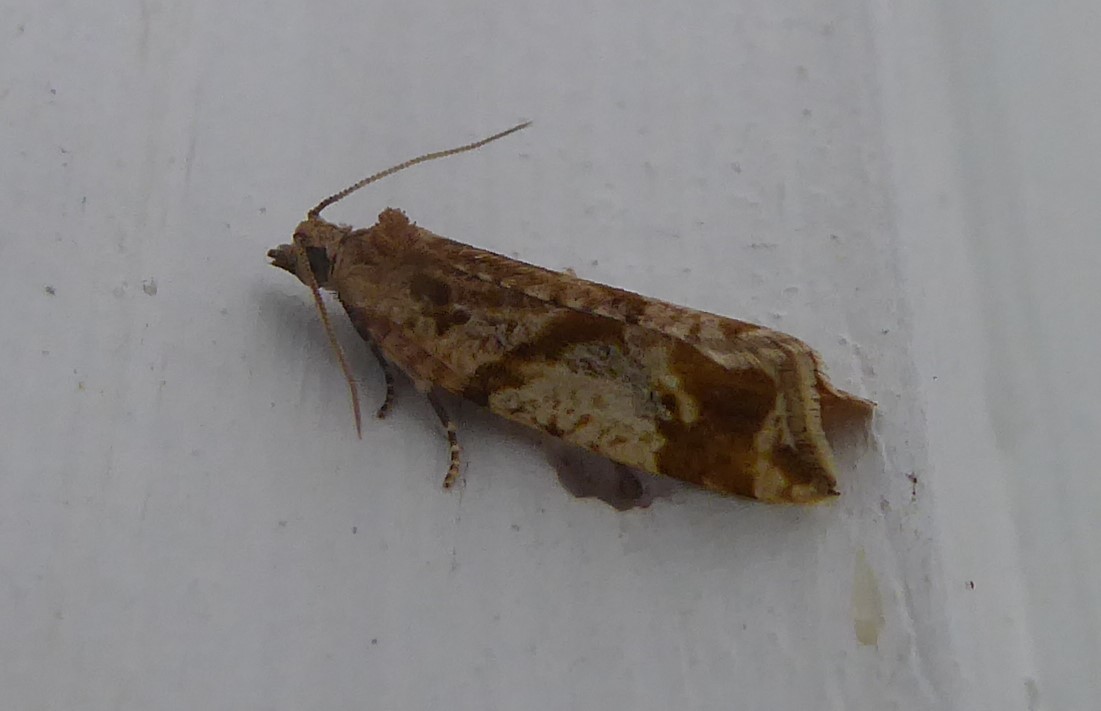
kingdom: Animalia
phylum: Arthropoda
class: Insecta
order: Lepidoptera
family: Tortricidae
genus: Pyrgotis
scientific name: Pyrgotis plagiatana
